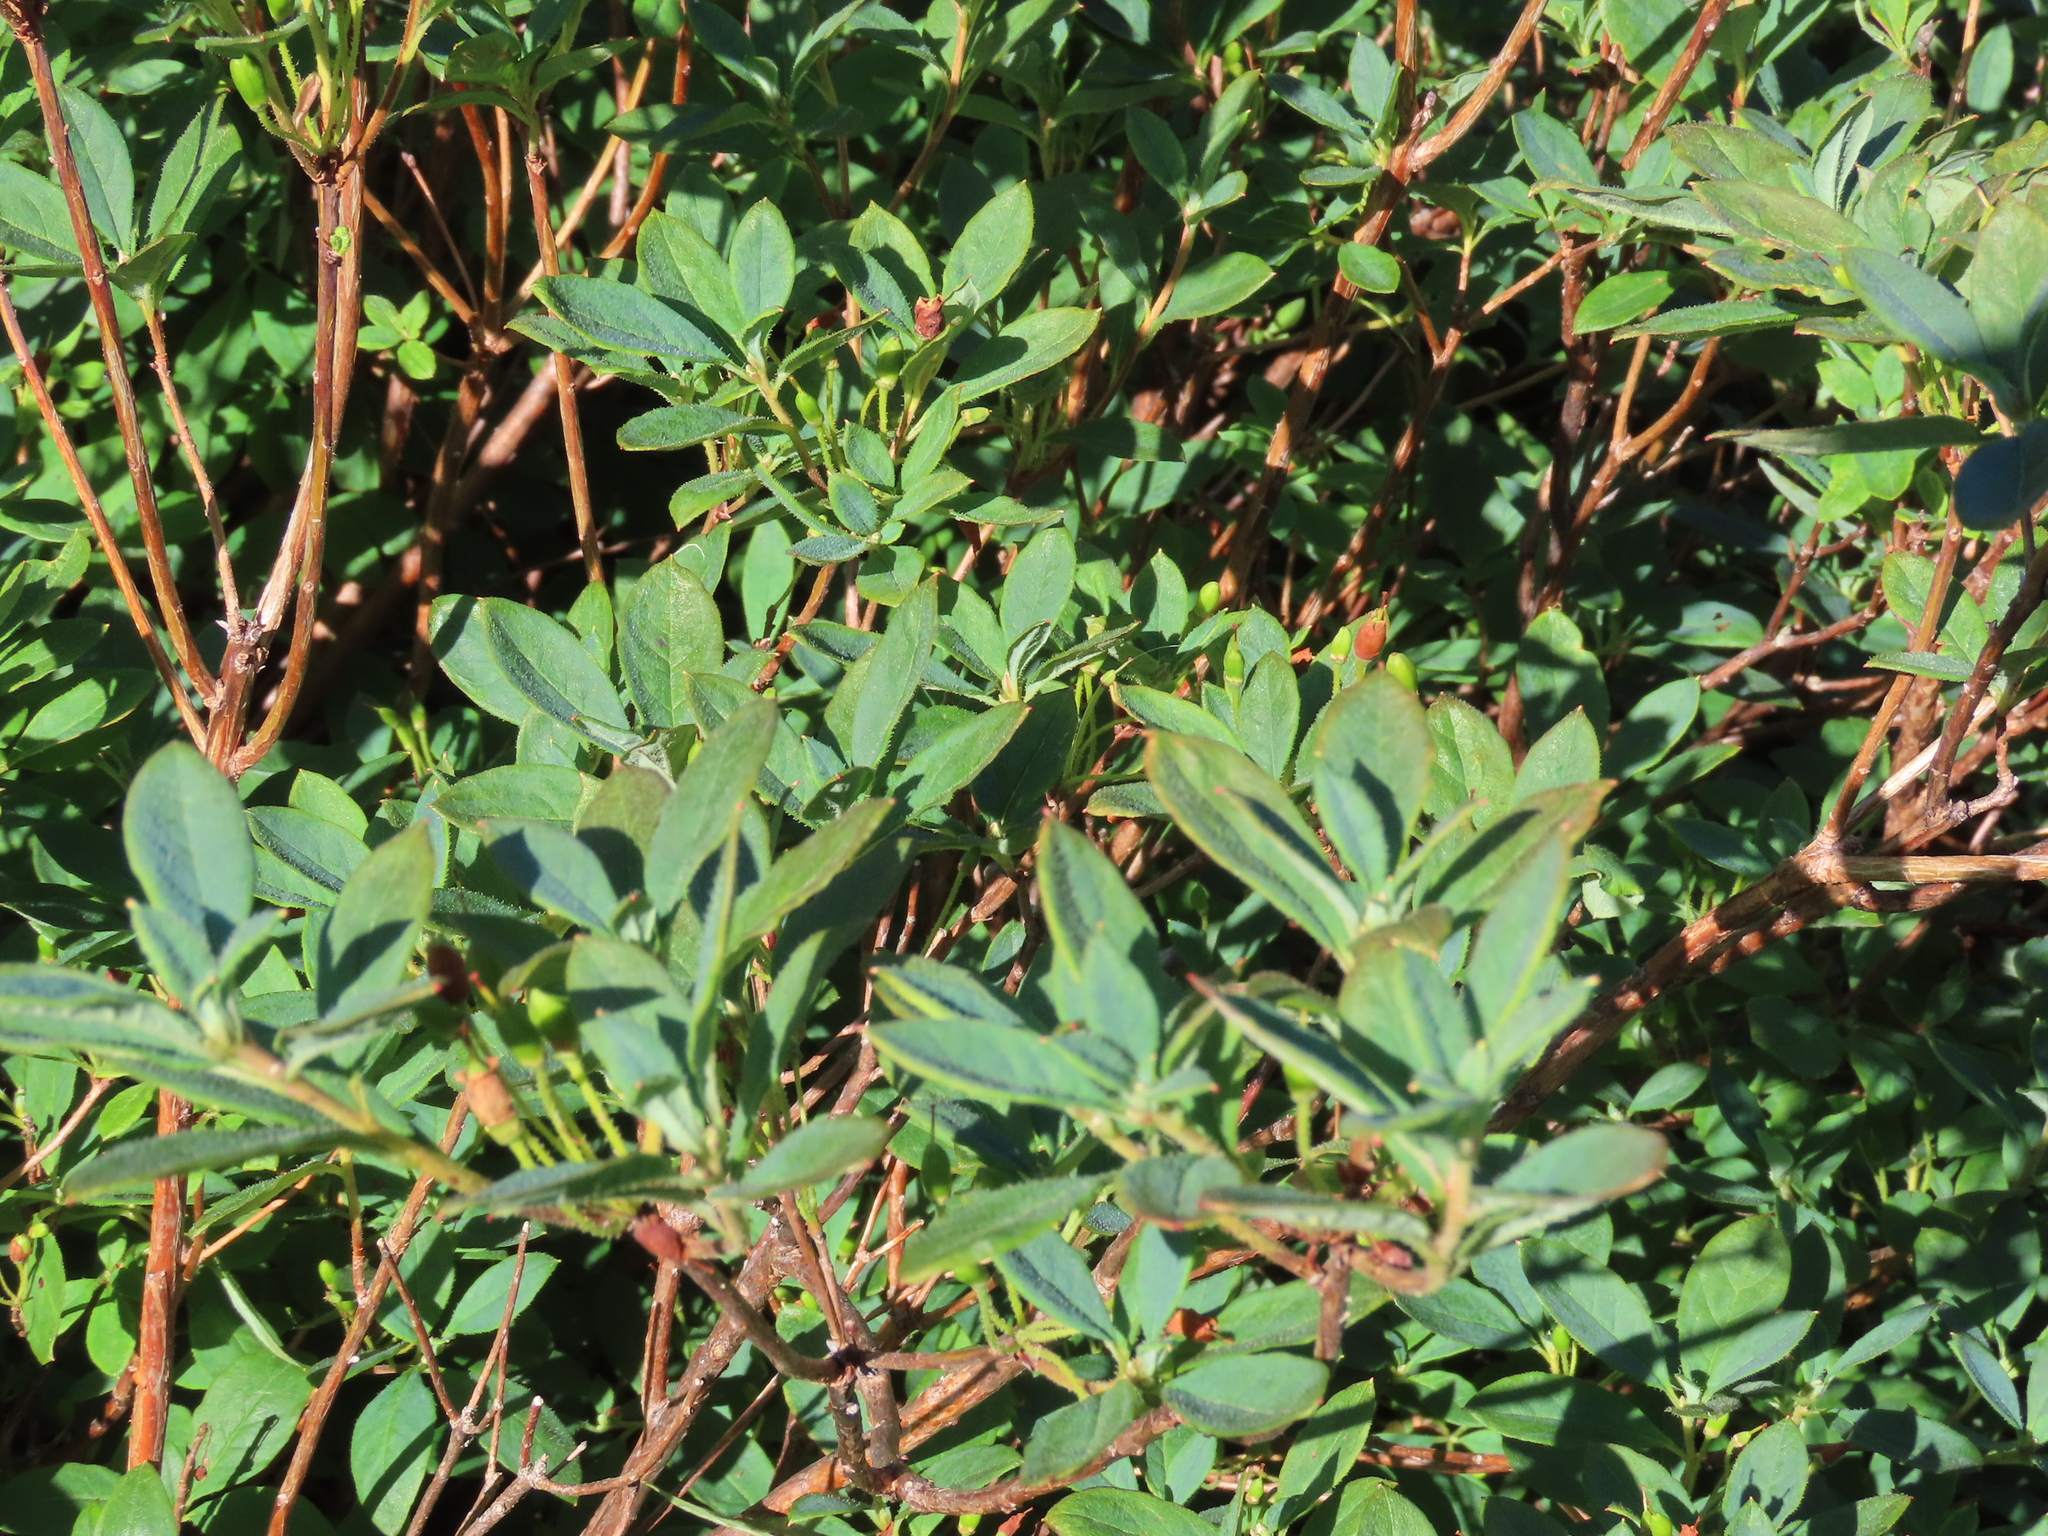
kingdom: Plantae
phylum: Tracheophyta
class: Magnoliopsida
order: Ericales
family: Ericaceae
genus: Rhododendron
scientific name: Rhododendron menziesii
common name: Pacific menziesia
